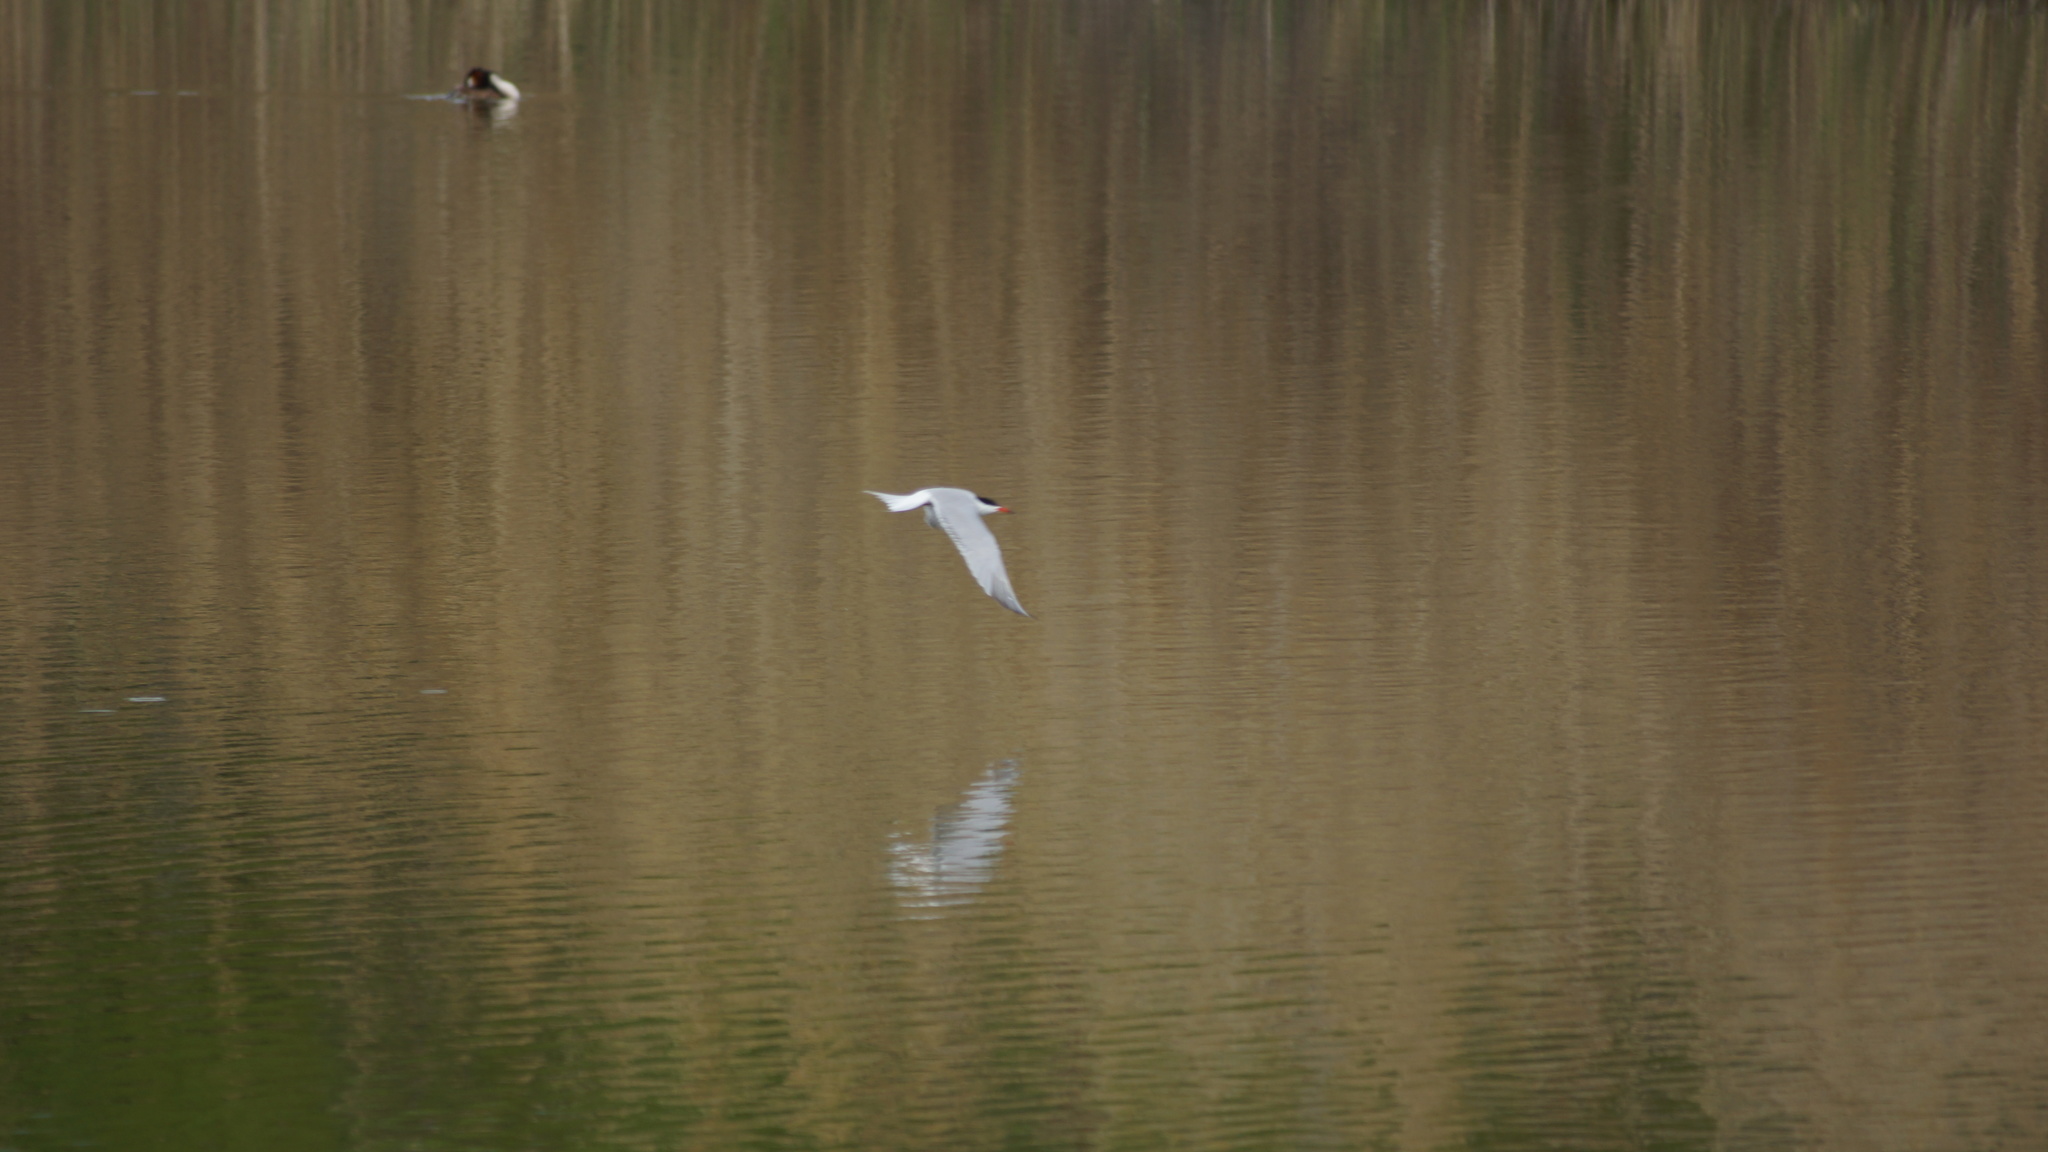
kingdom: Animalia
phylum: Chordata
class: Aves
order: Charadriiformes
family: Laridae
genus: Sterna
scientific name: Sterna hirundo
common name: Common tern
